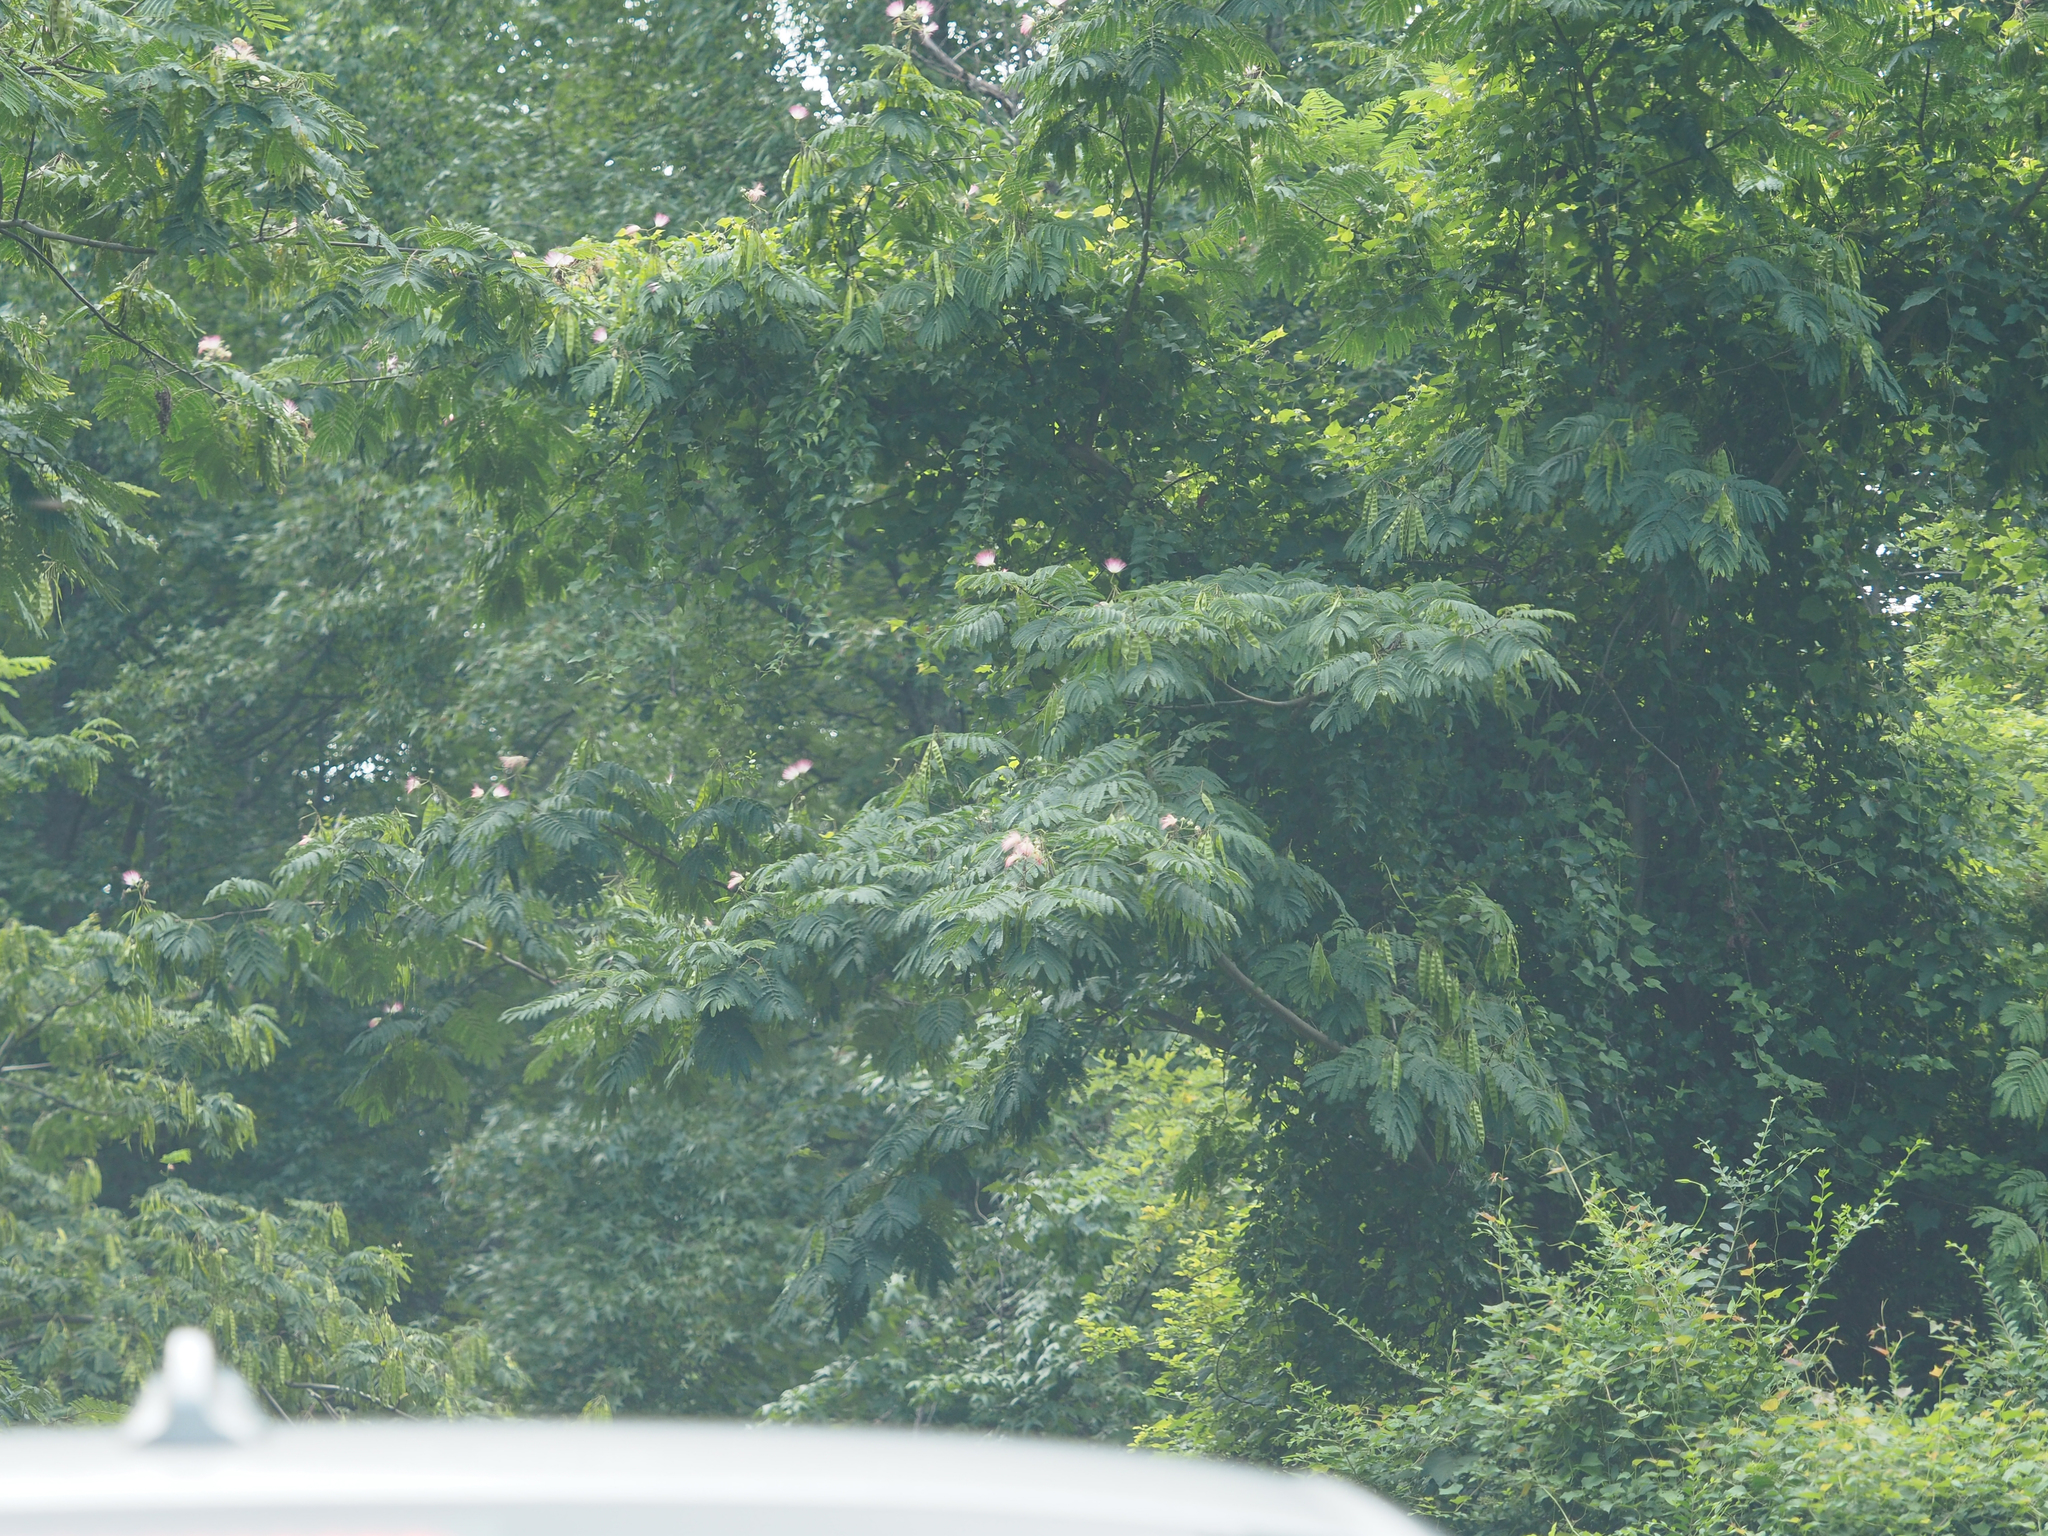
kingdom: Plantae
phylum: Tracheophyta
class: Magnoliopsida
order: Fabales
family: Fabaceae
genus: Albizia
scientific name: Albizia julibrissin
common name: Silktree
